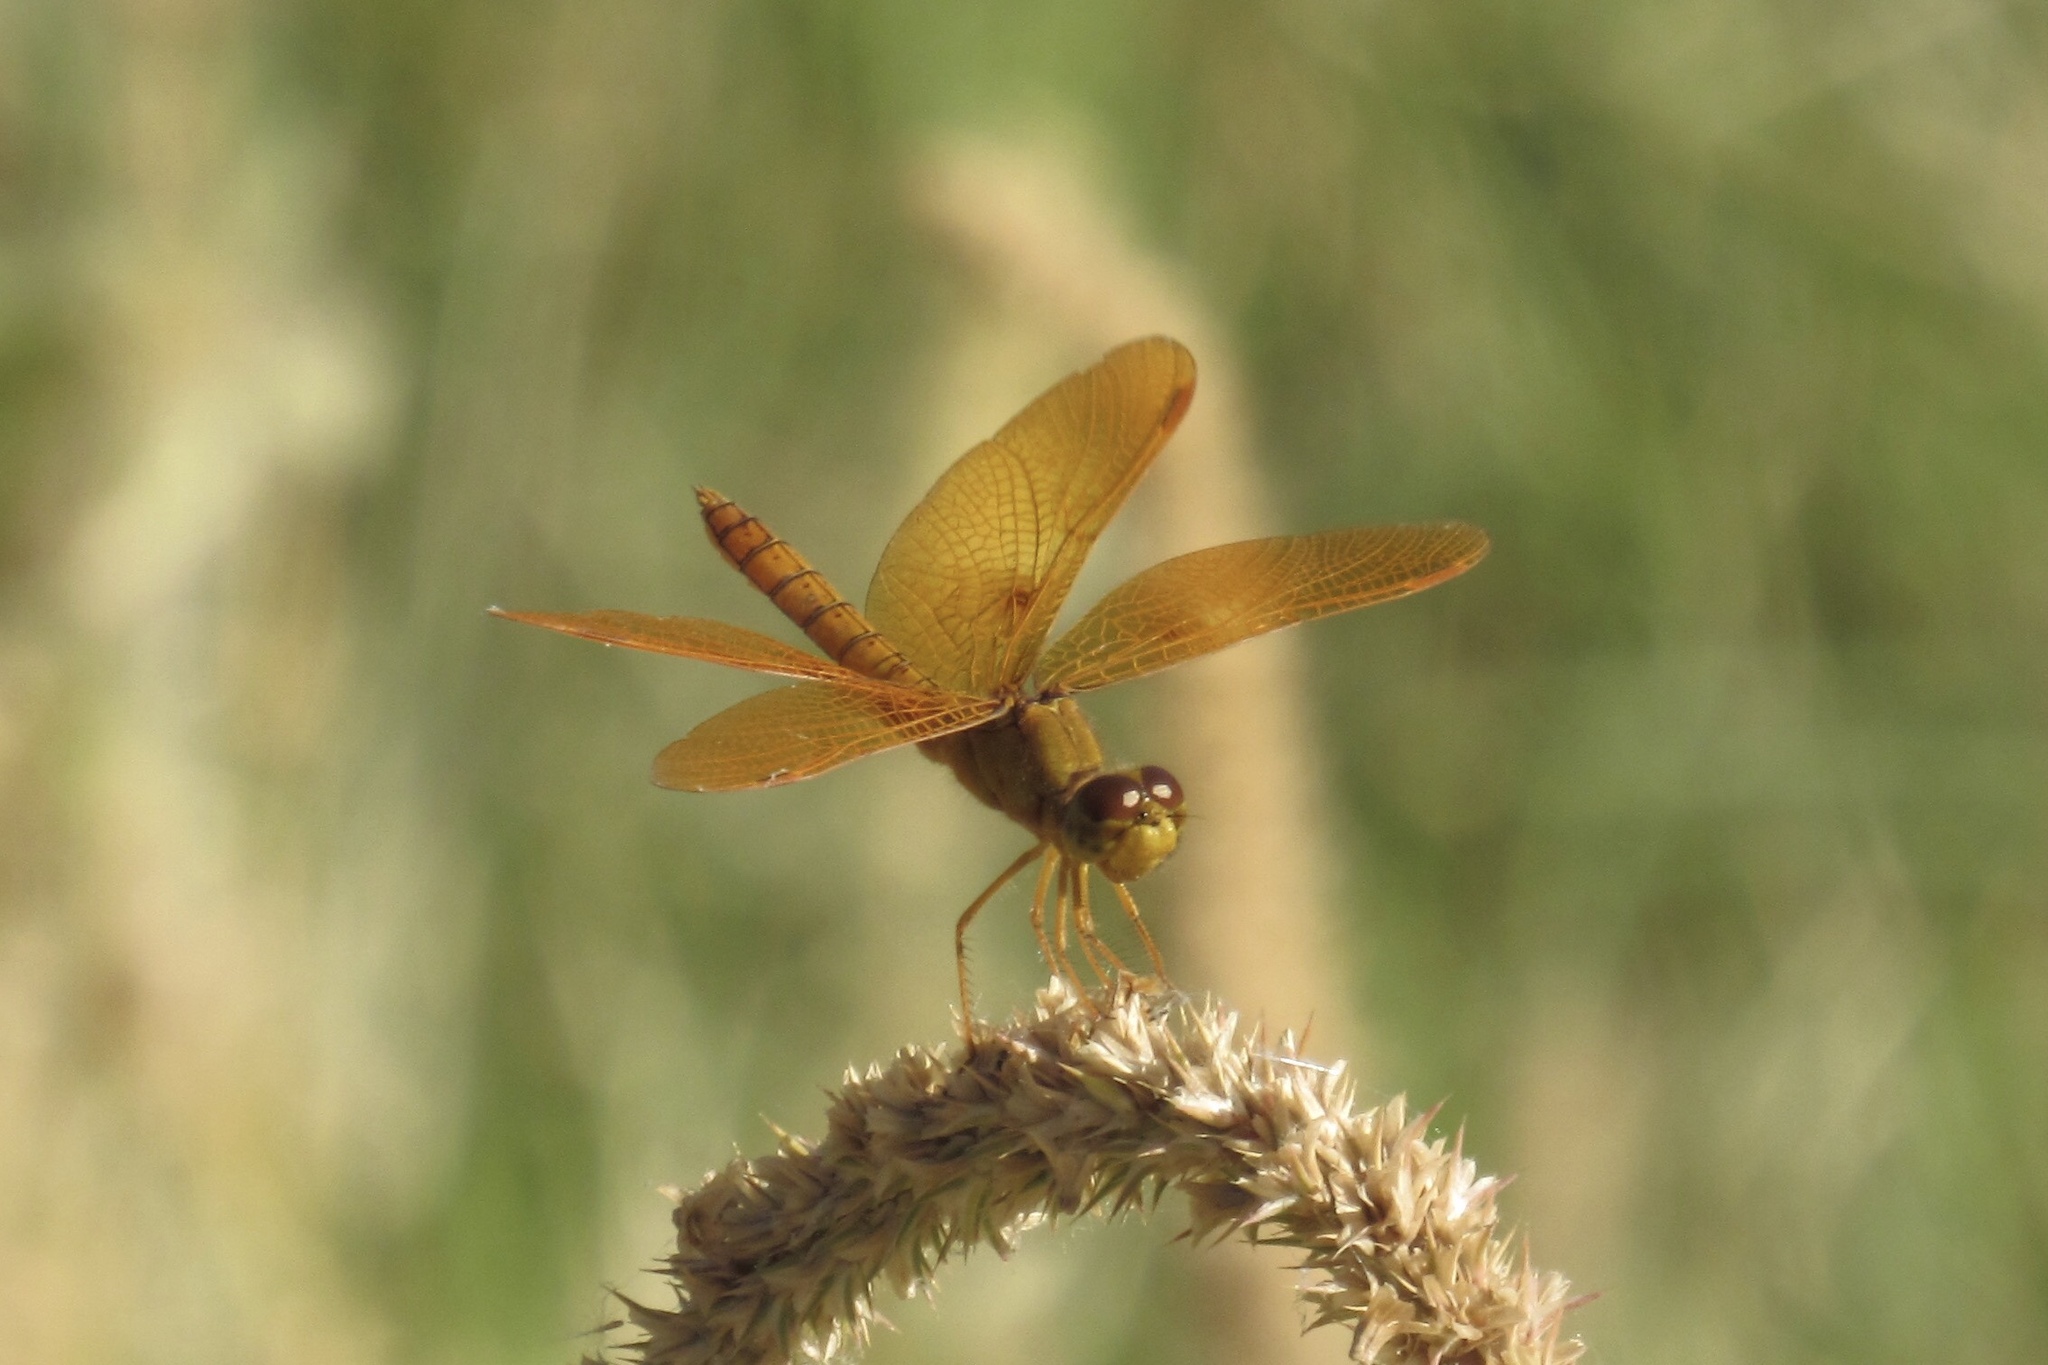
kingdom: Animalia
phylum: Arthropoda
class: Insecta
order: Odonata
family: Libellulidae
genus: Perithemis
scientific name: Perithemis intensa
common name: Mexican amberwing
